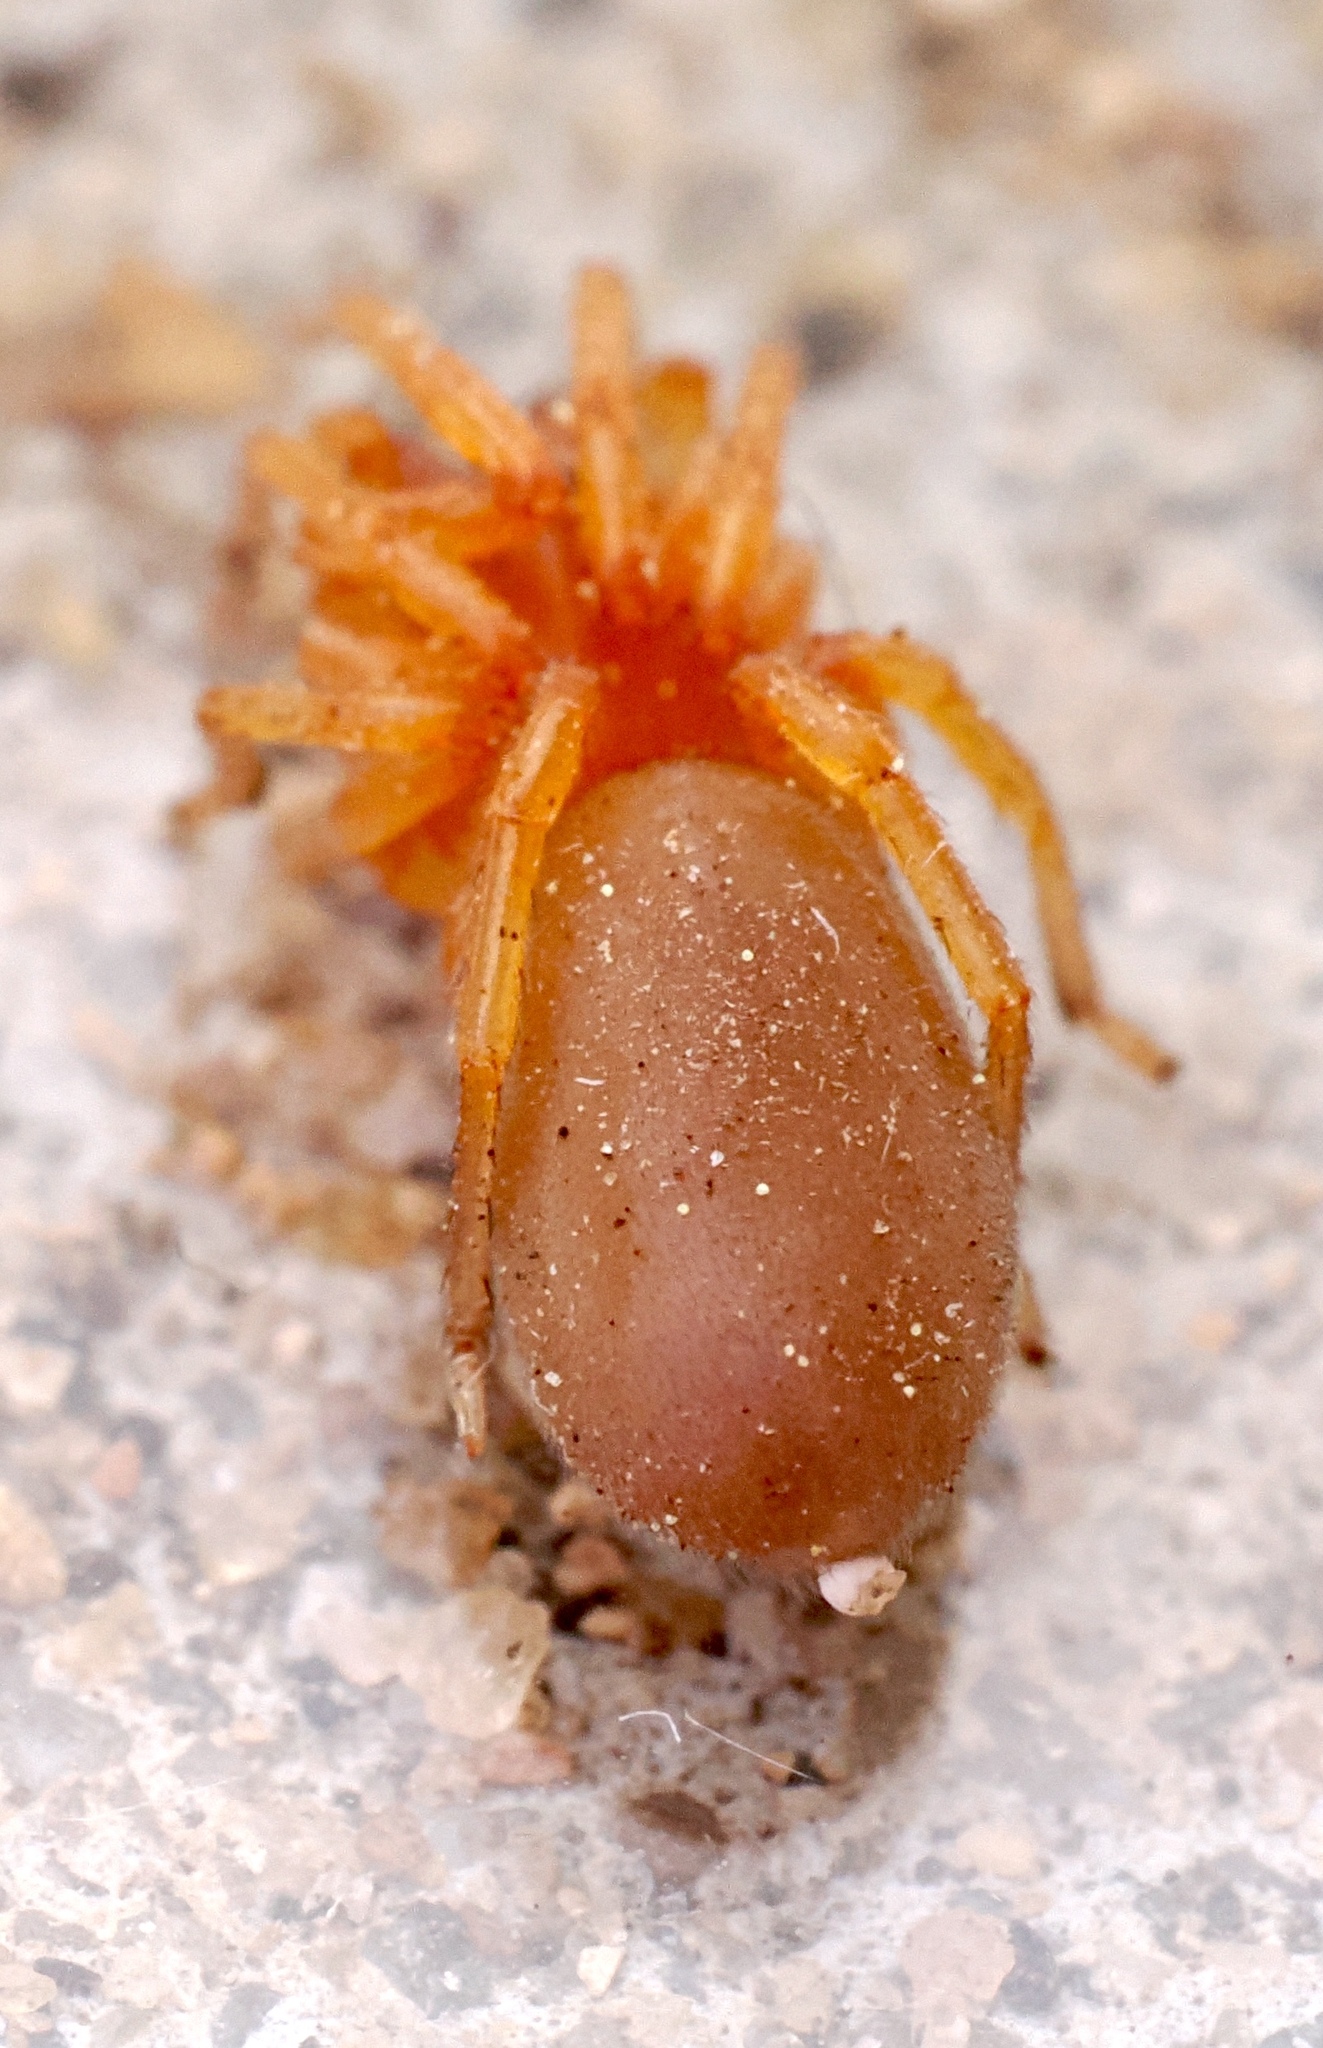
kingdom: Animalia
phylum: Arthropoda
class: Arachnida
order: Araneae
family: Dysderidae
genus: Dysdera
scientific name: Dysdera crocata
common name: Woodlouse spider
